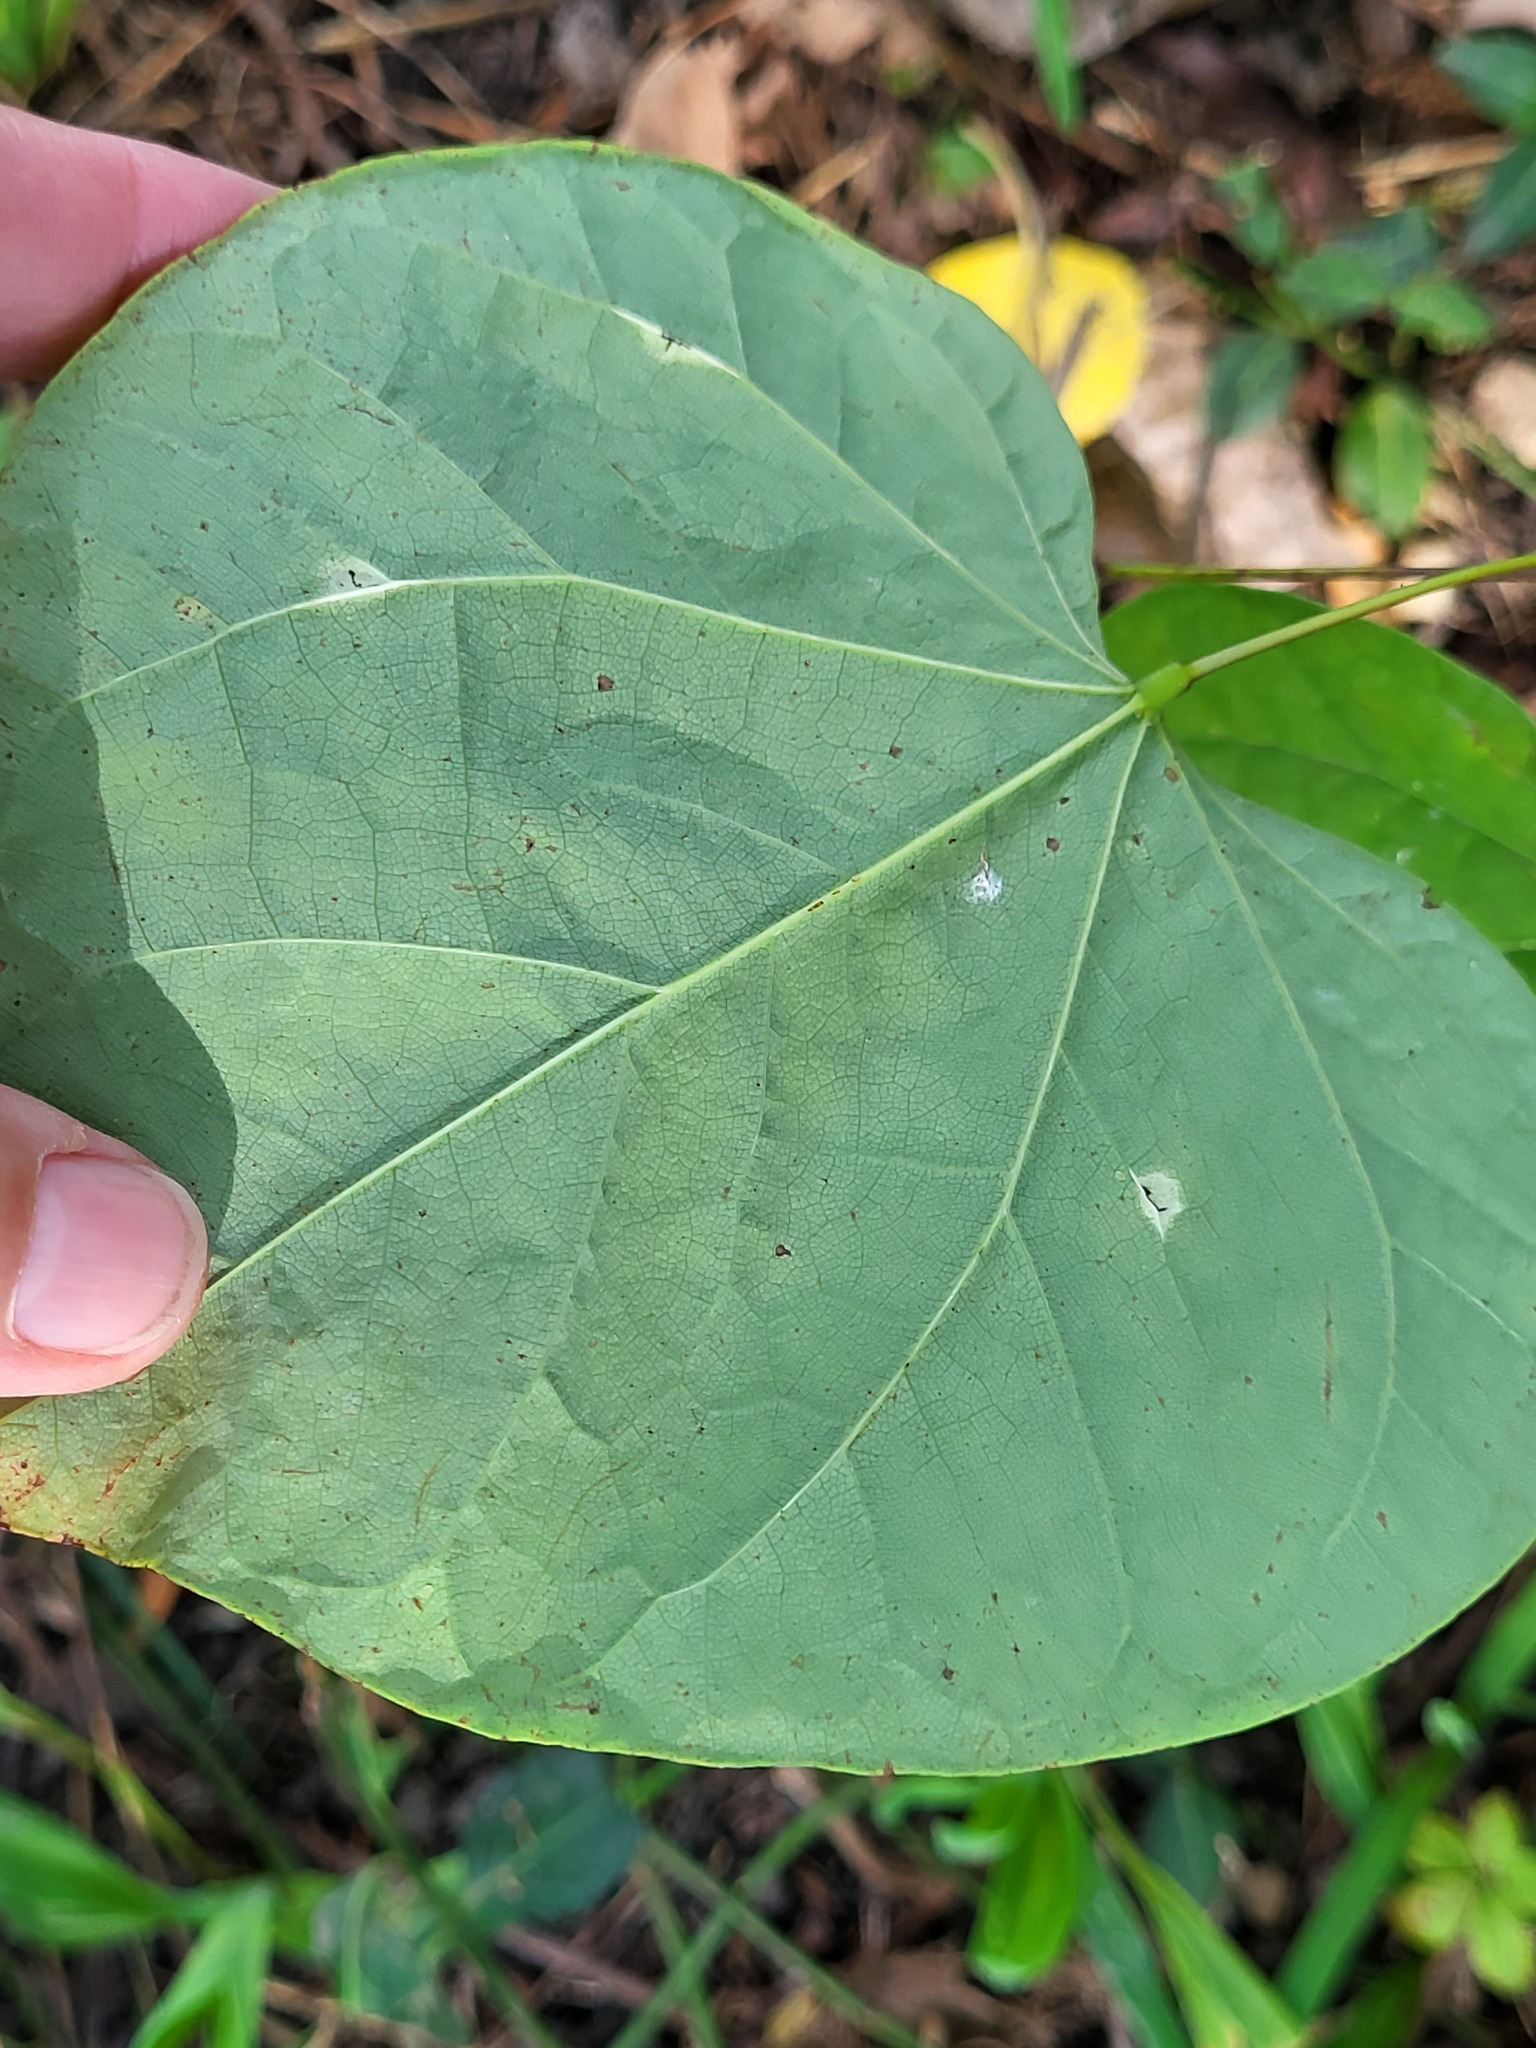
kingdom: Plantae
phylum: Tracheophyta
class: Magnoliopsida
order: Fabales
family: Fabaceae
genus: Cercis
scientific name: Cercis canadensis
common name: Eastern redbud
